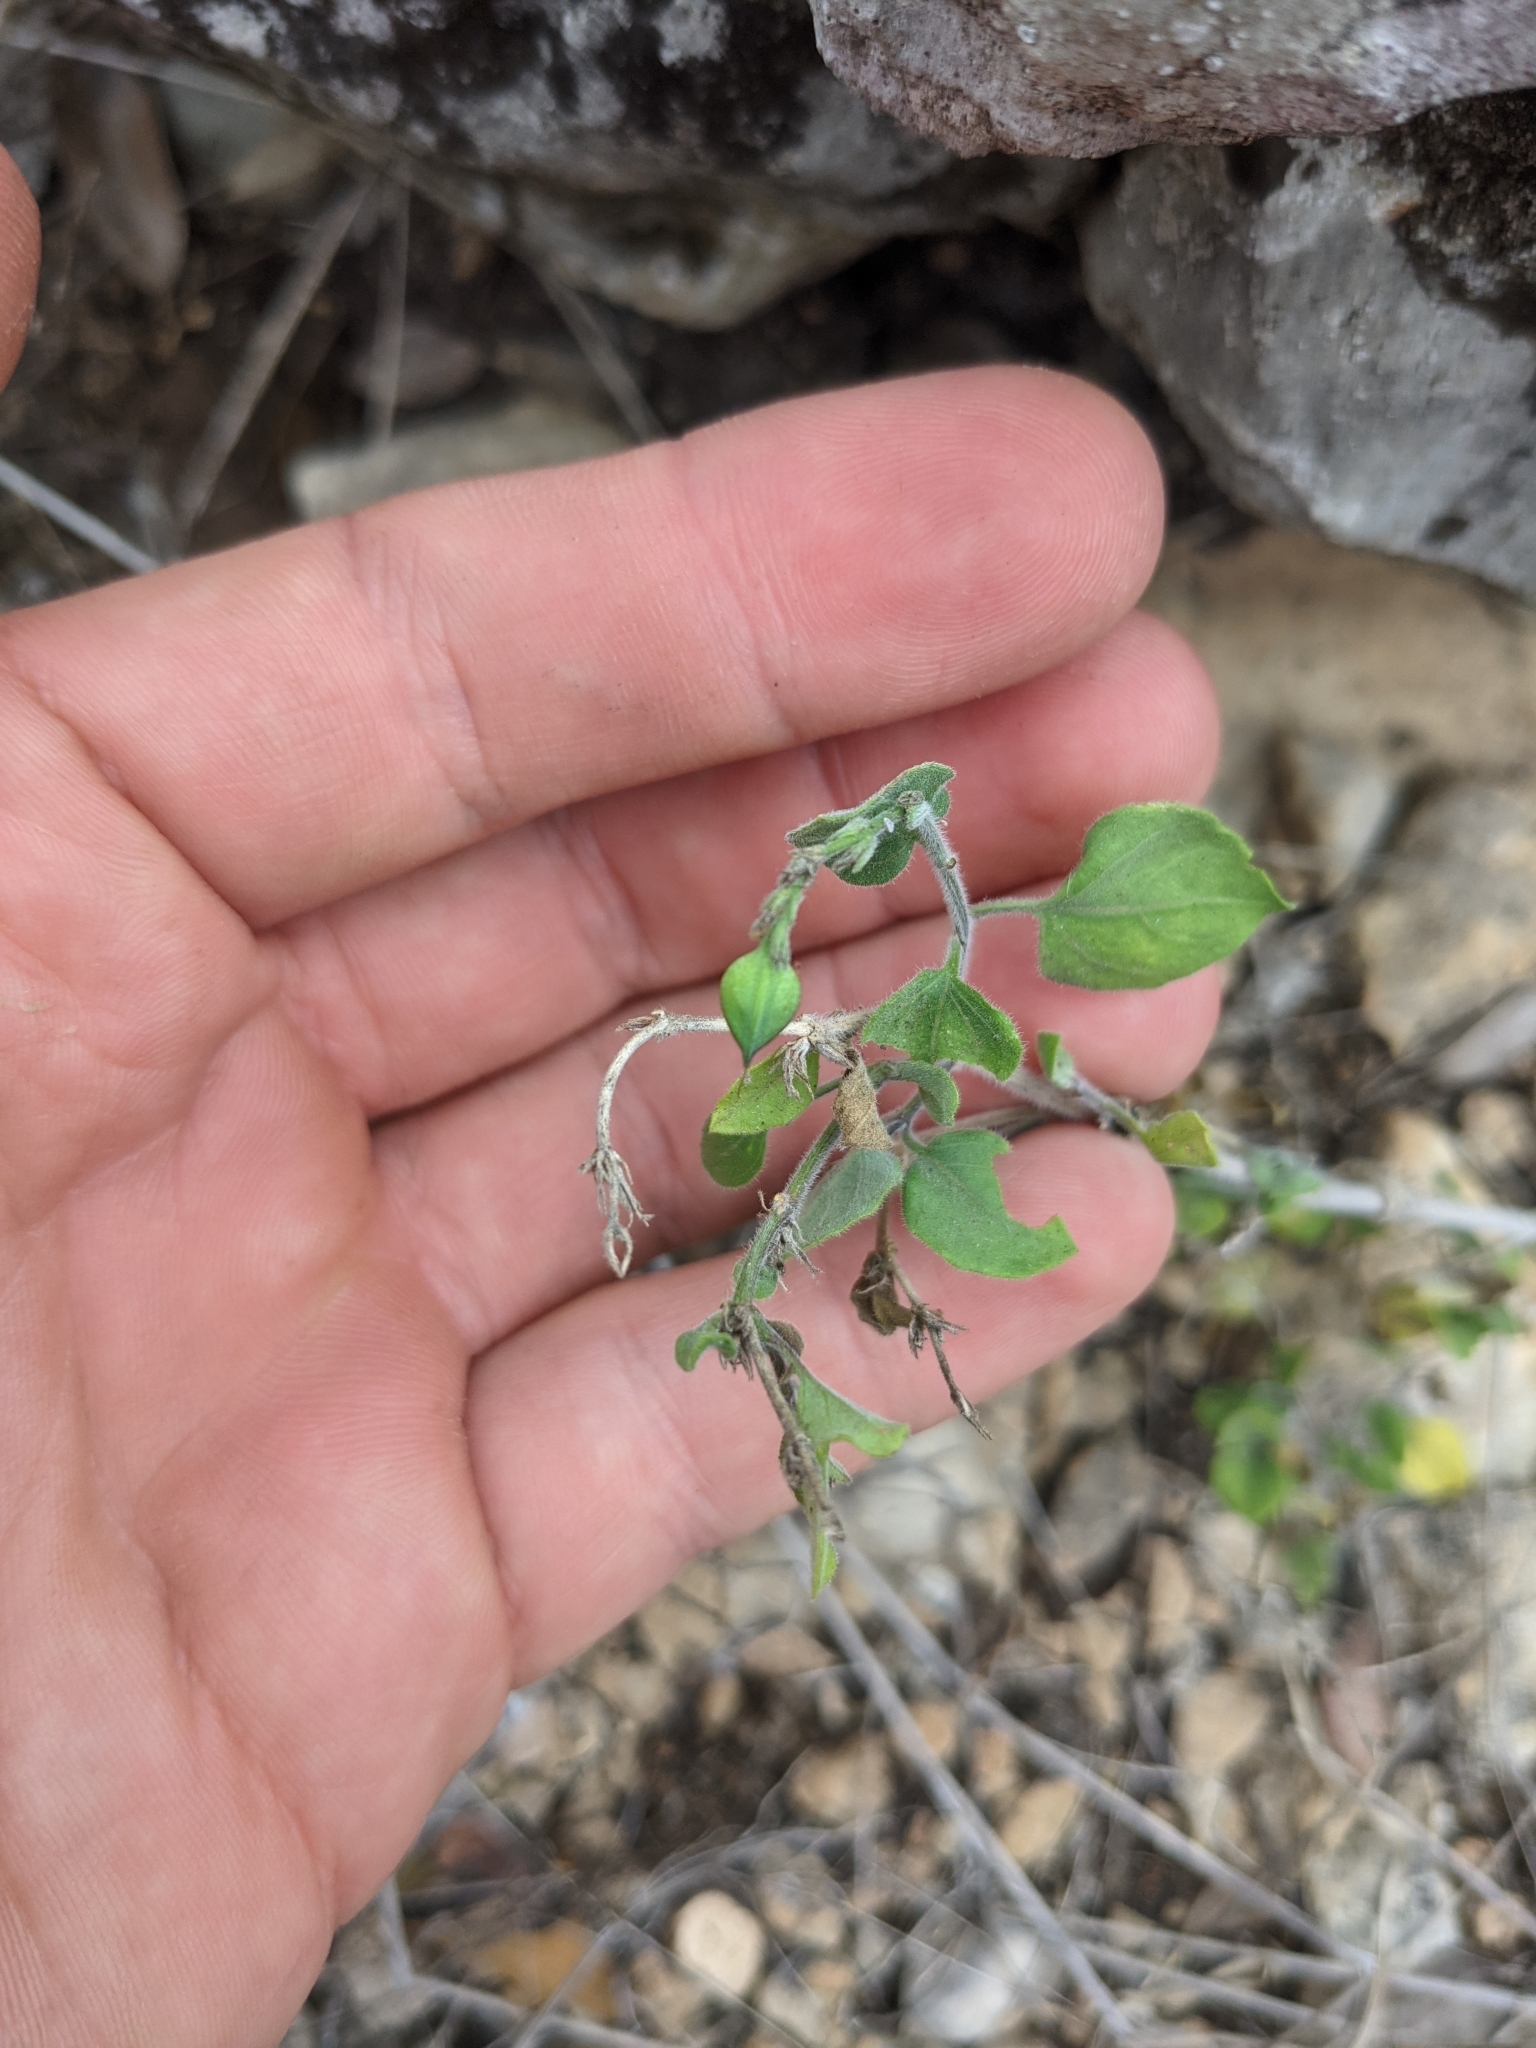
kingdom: Plantae
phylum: Tracheophyta
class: Magnoliopsida
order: Lamiales
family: Acanthaceae
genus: Carlowrightia
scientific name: Carlowrightia torreyana
